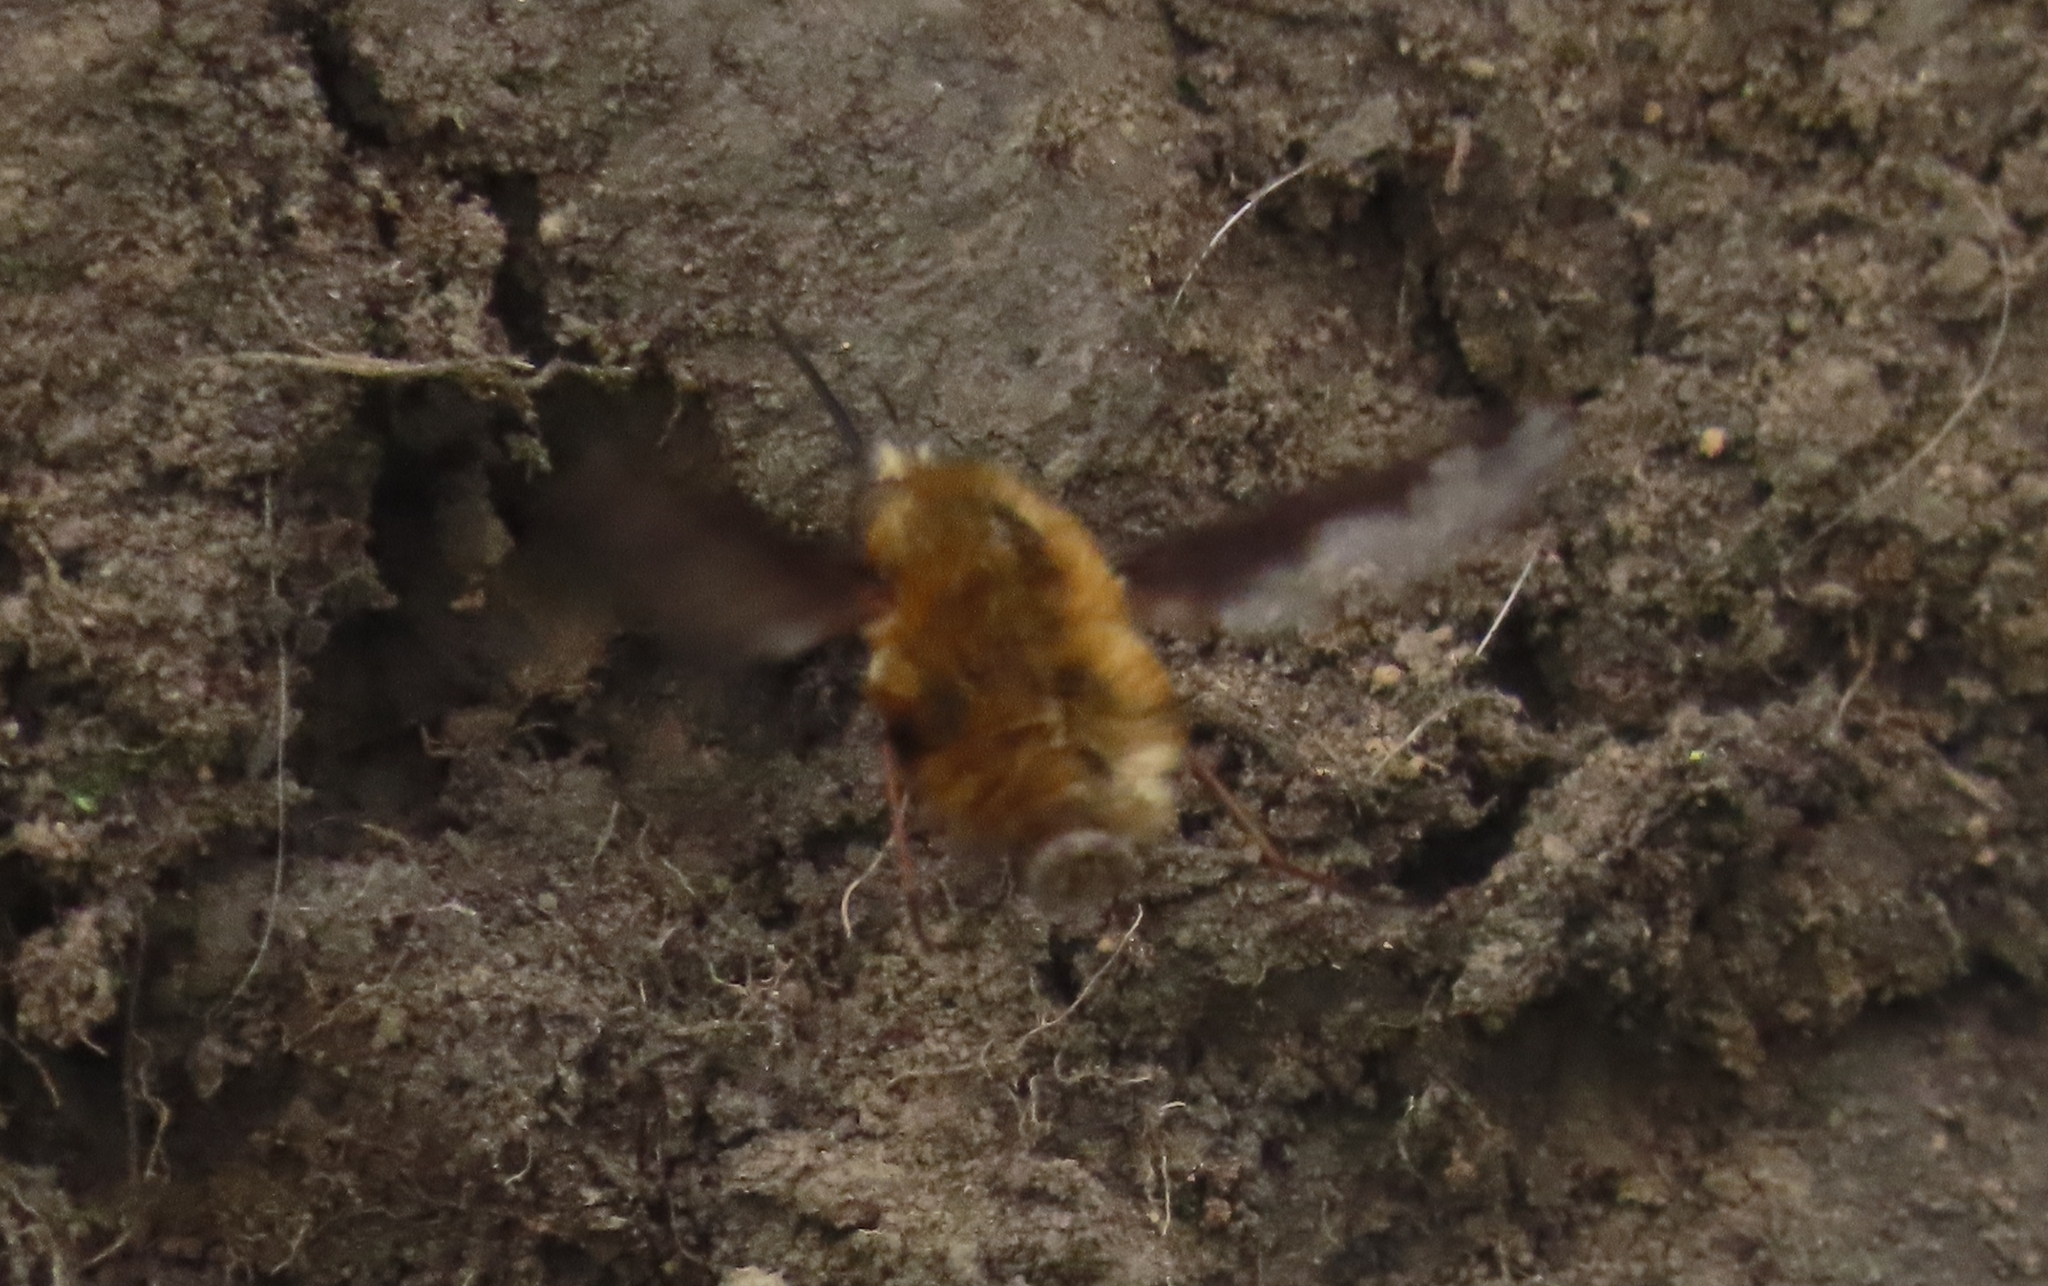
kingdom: Animalia
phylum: Arthropoda
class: Insecta
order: Diptera
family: Bombyliidae
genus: Bombylius
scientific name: Bombylius major
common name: Bee fly
